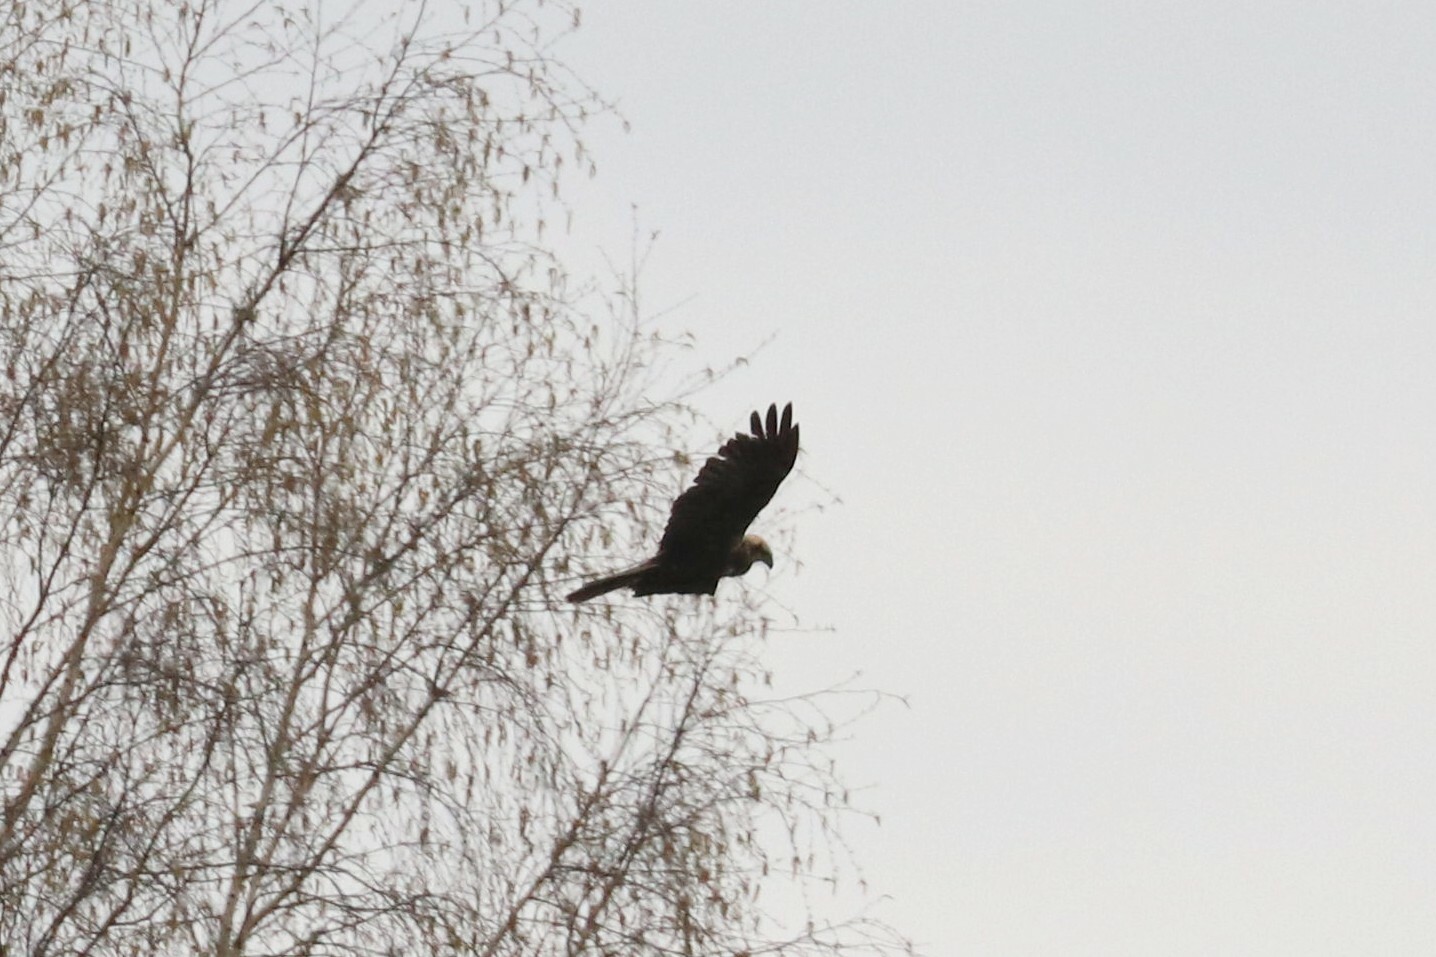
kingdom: Animalia
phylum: Chordata
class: Aves
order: Accipitriformes
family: Accipitridae
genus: Circus
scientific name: Circus aeruginosus
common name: Western marsh harrier
